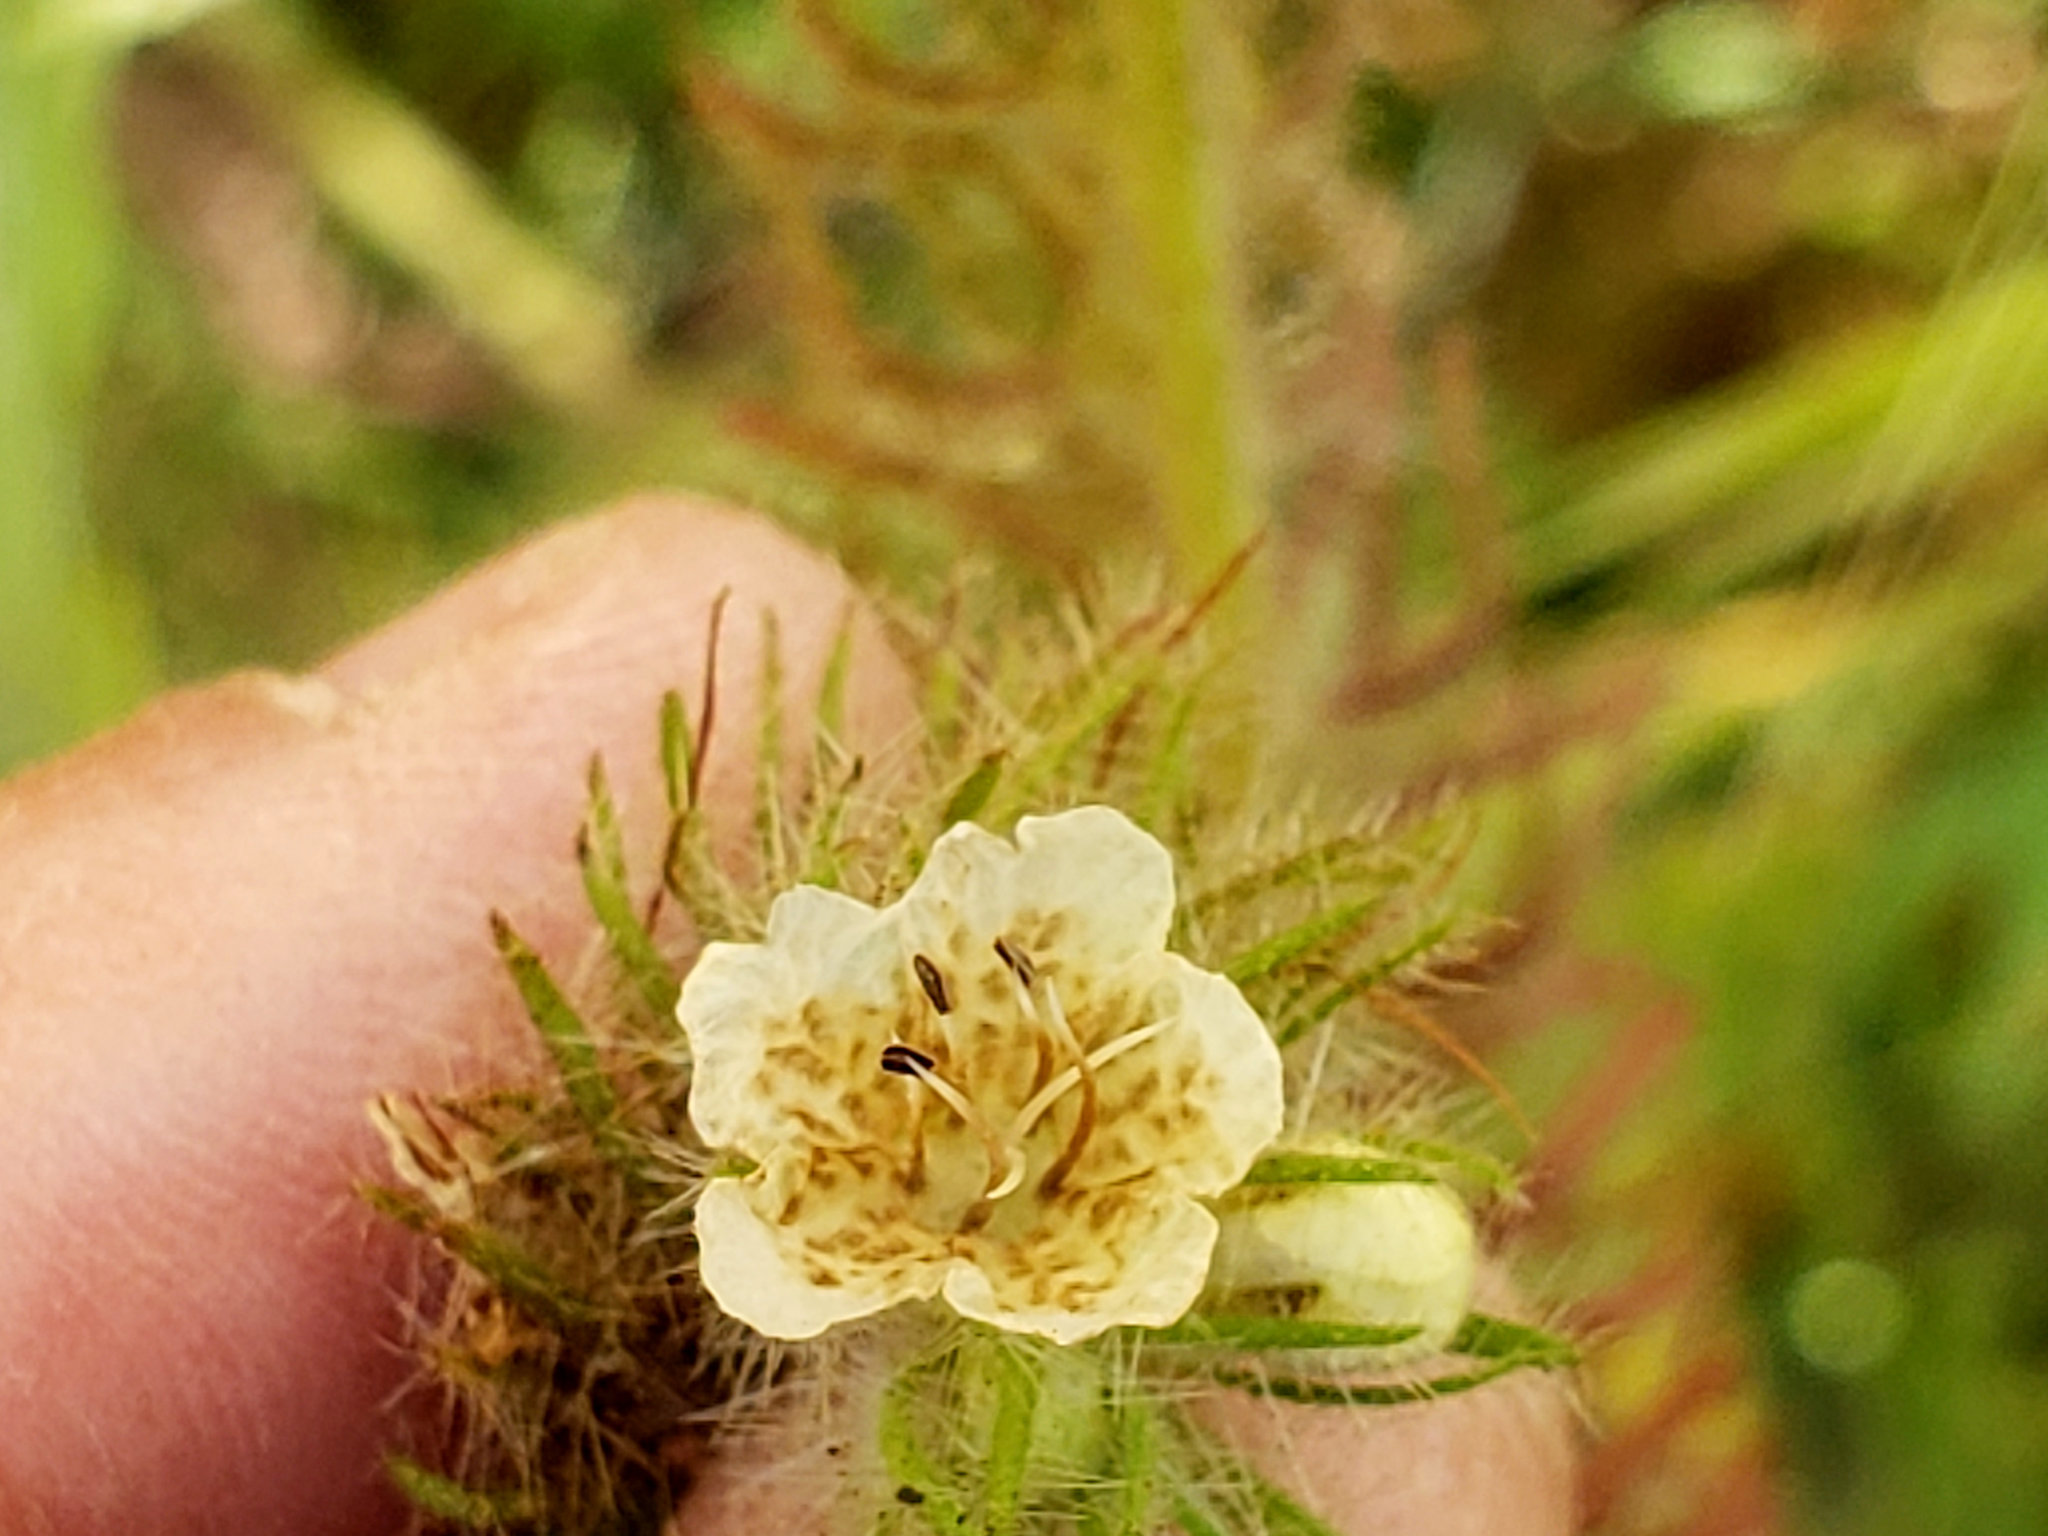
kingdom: Plantae
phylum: Tracheophyta
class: Magnoliopsida
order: Boraginales
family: Hydrophyllaceae
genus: Phacelia
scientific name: Phacelia cicutaria
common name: Caterpillar phacelia
